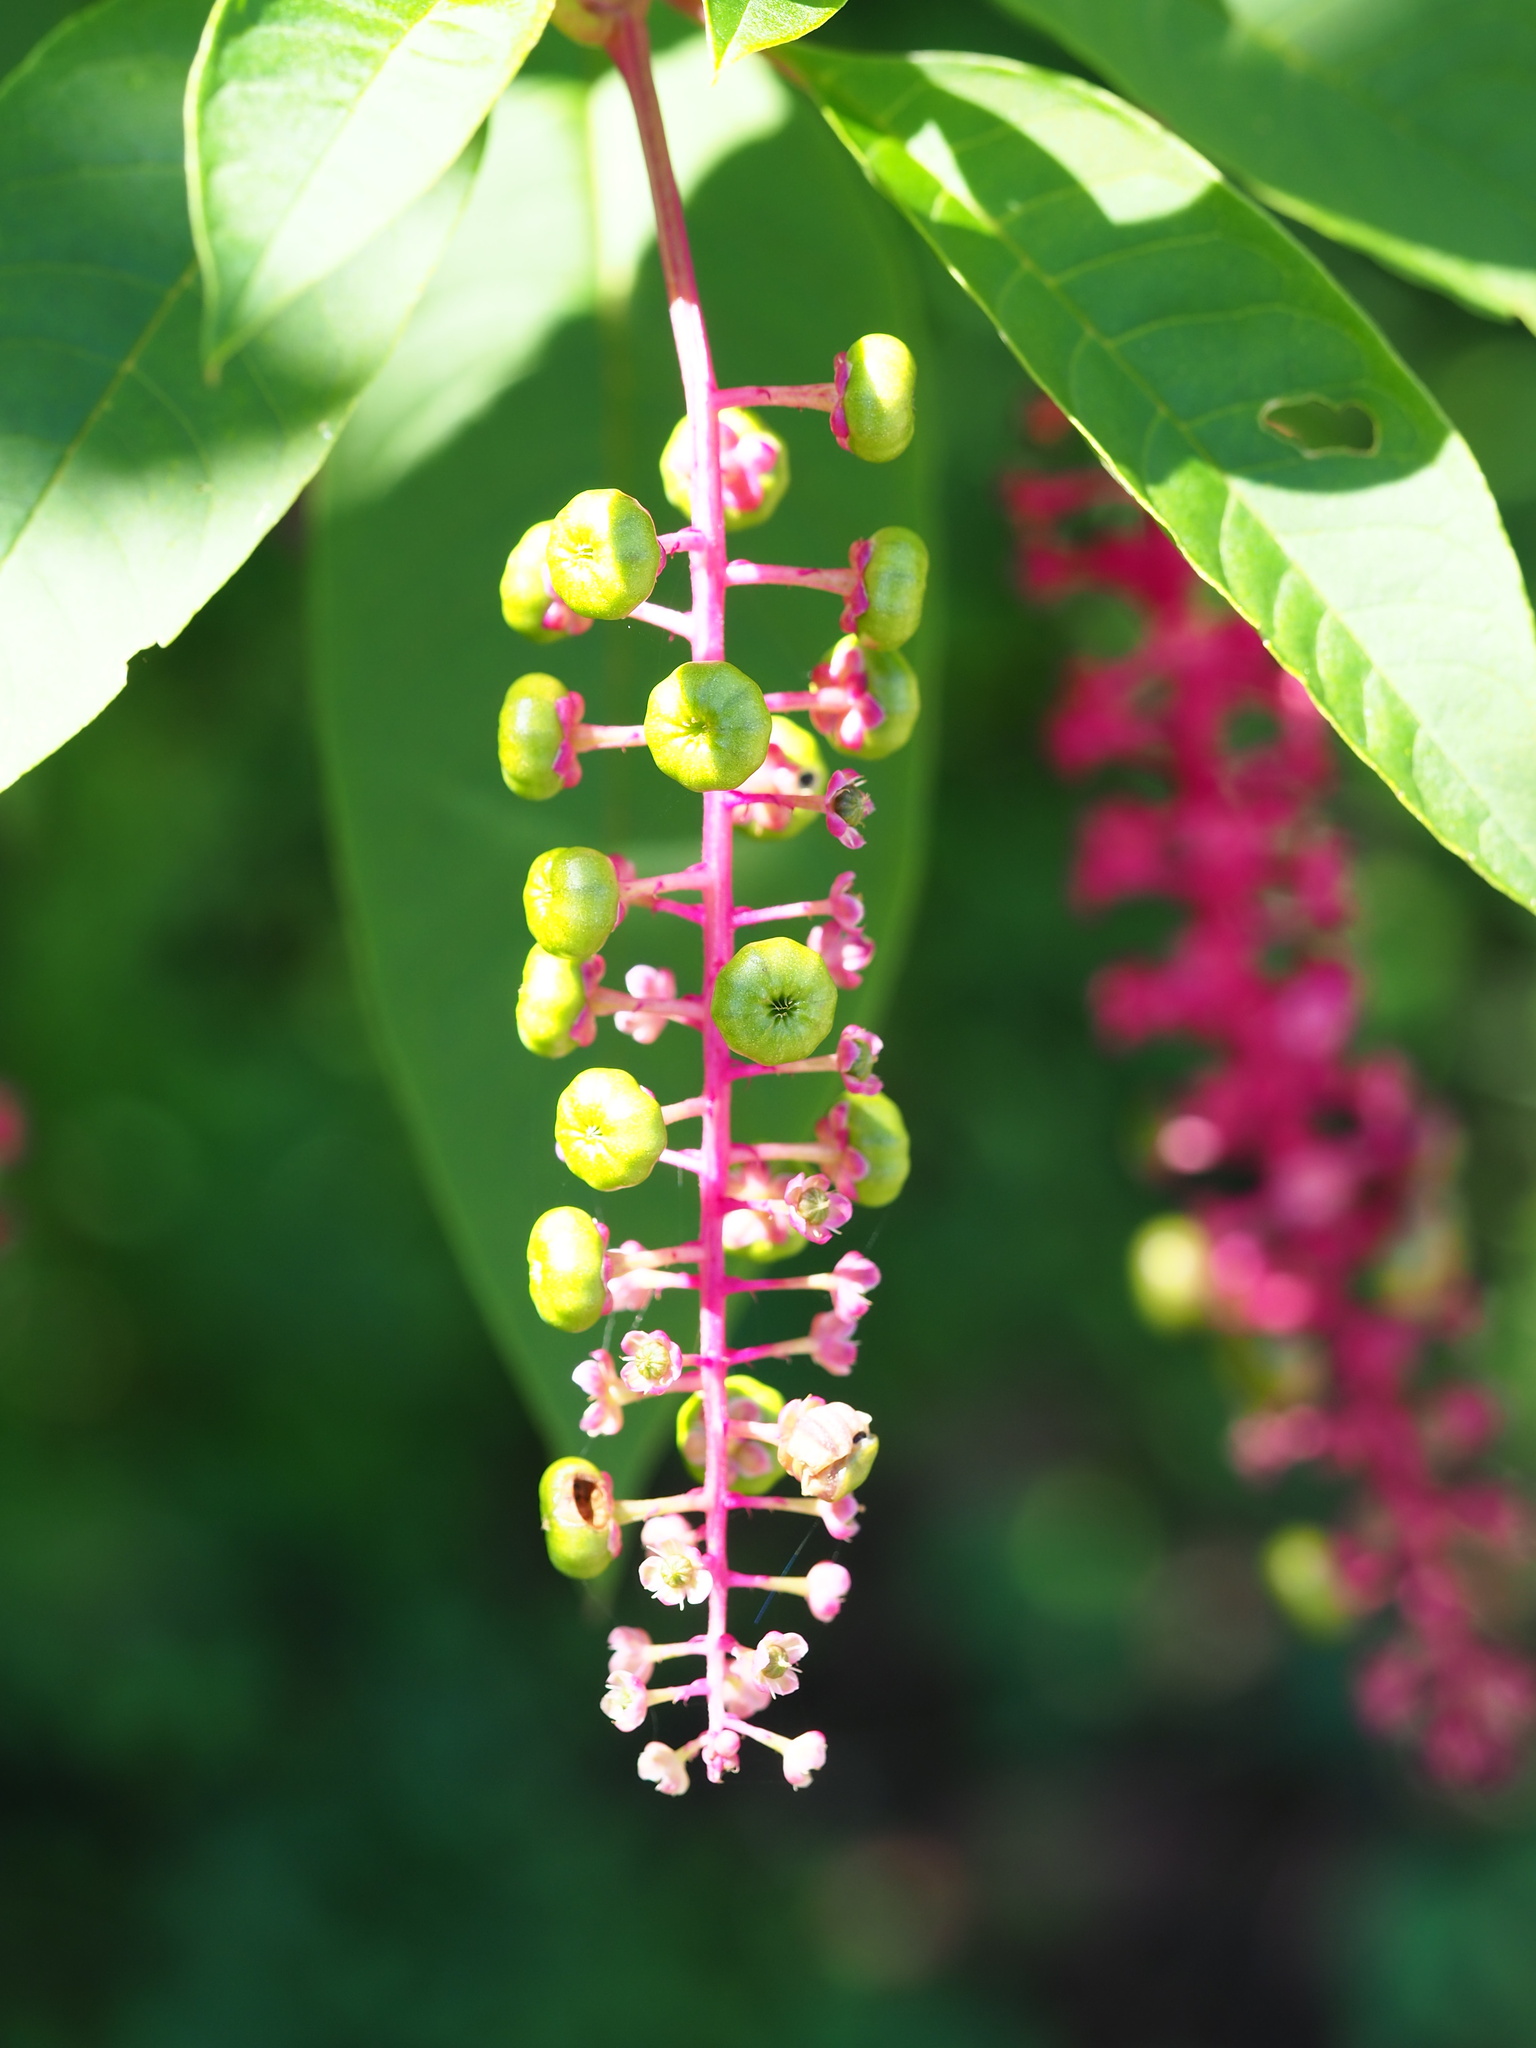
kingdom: Plantae
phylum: Tracheophyta
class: Magnoliopsida
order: Caryophyllales
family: Phytolaccaceae
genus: Phytolacca
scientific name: Phytolacca americana
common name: American pokeweed
